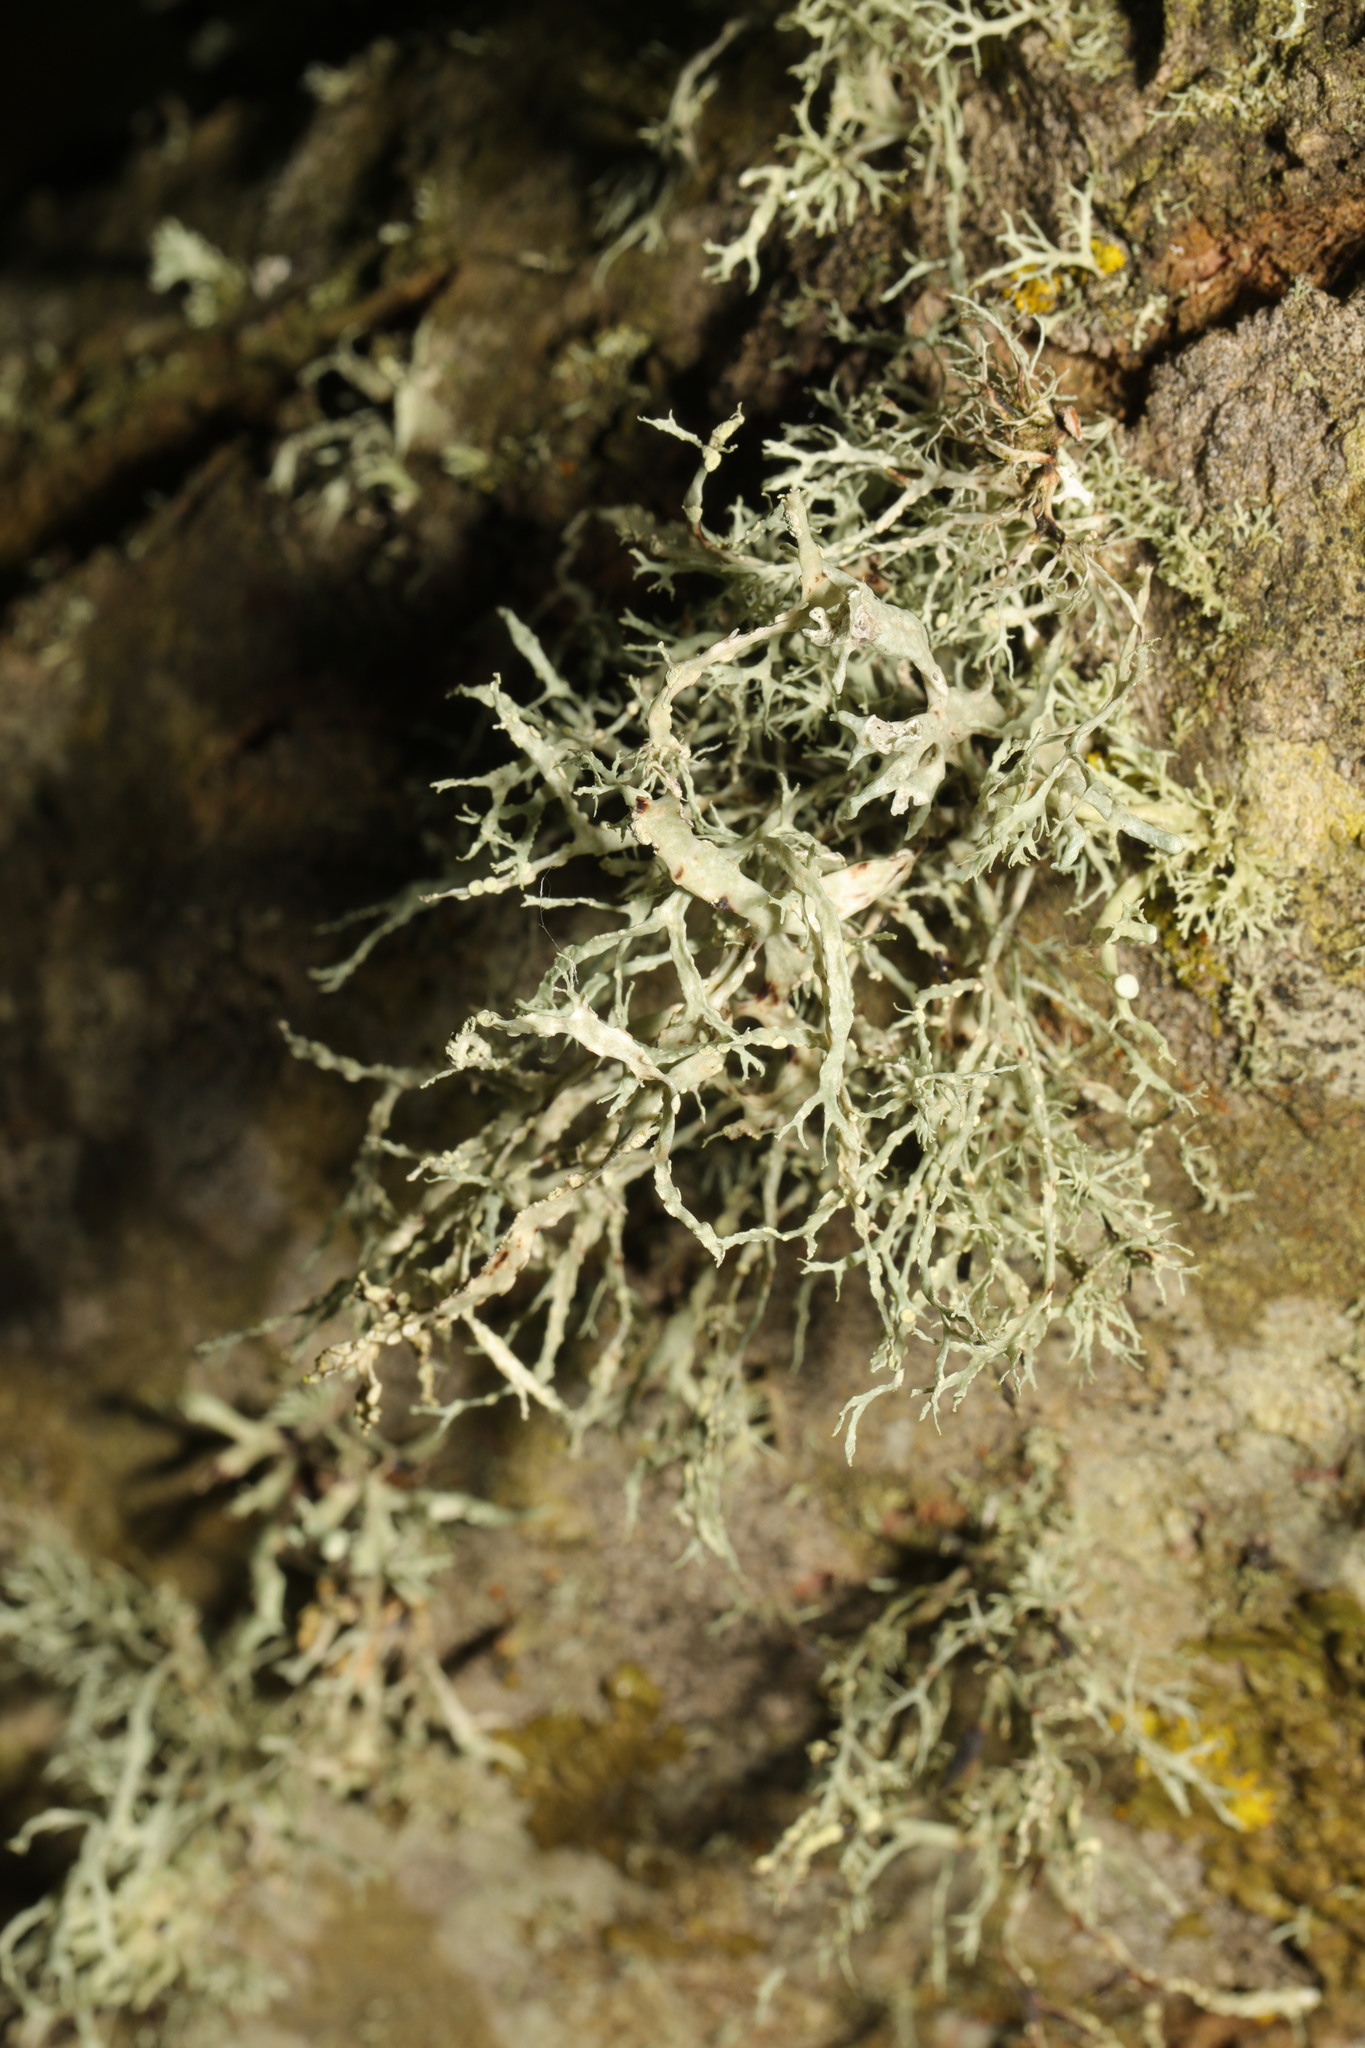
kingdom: Fungi
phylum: Ascomycota
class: Lecanoromycetes
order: Lecanorales
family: Ramalinaceae
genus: Ramalina
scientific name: Ramalina farinacea
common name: Farinose cartilage lichen
